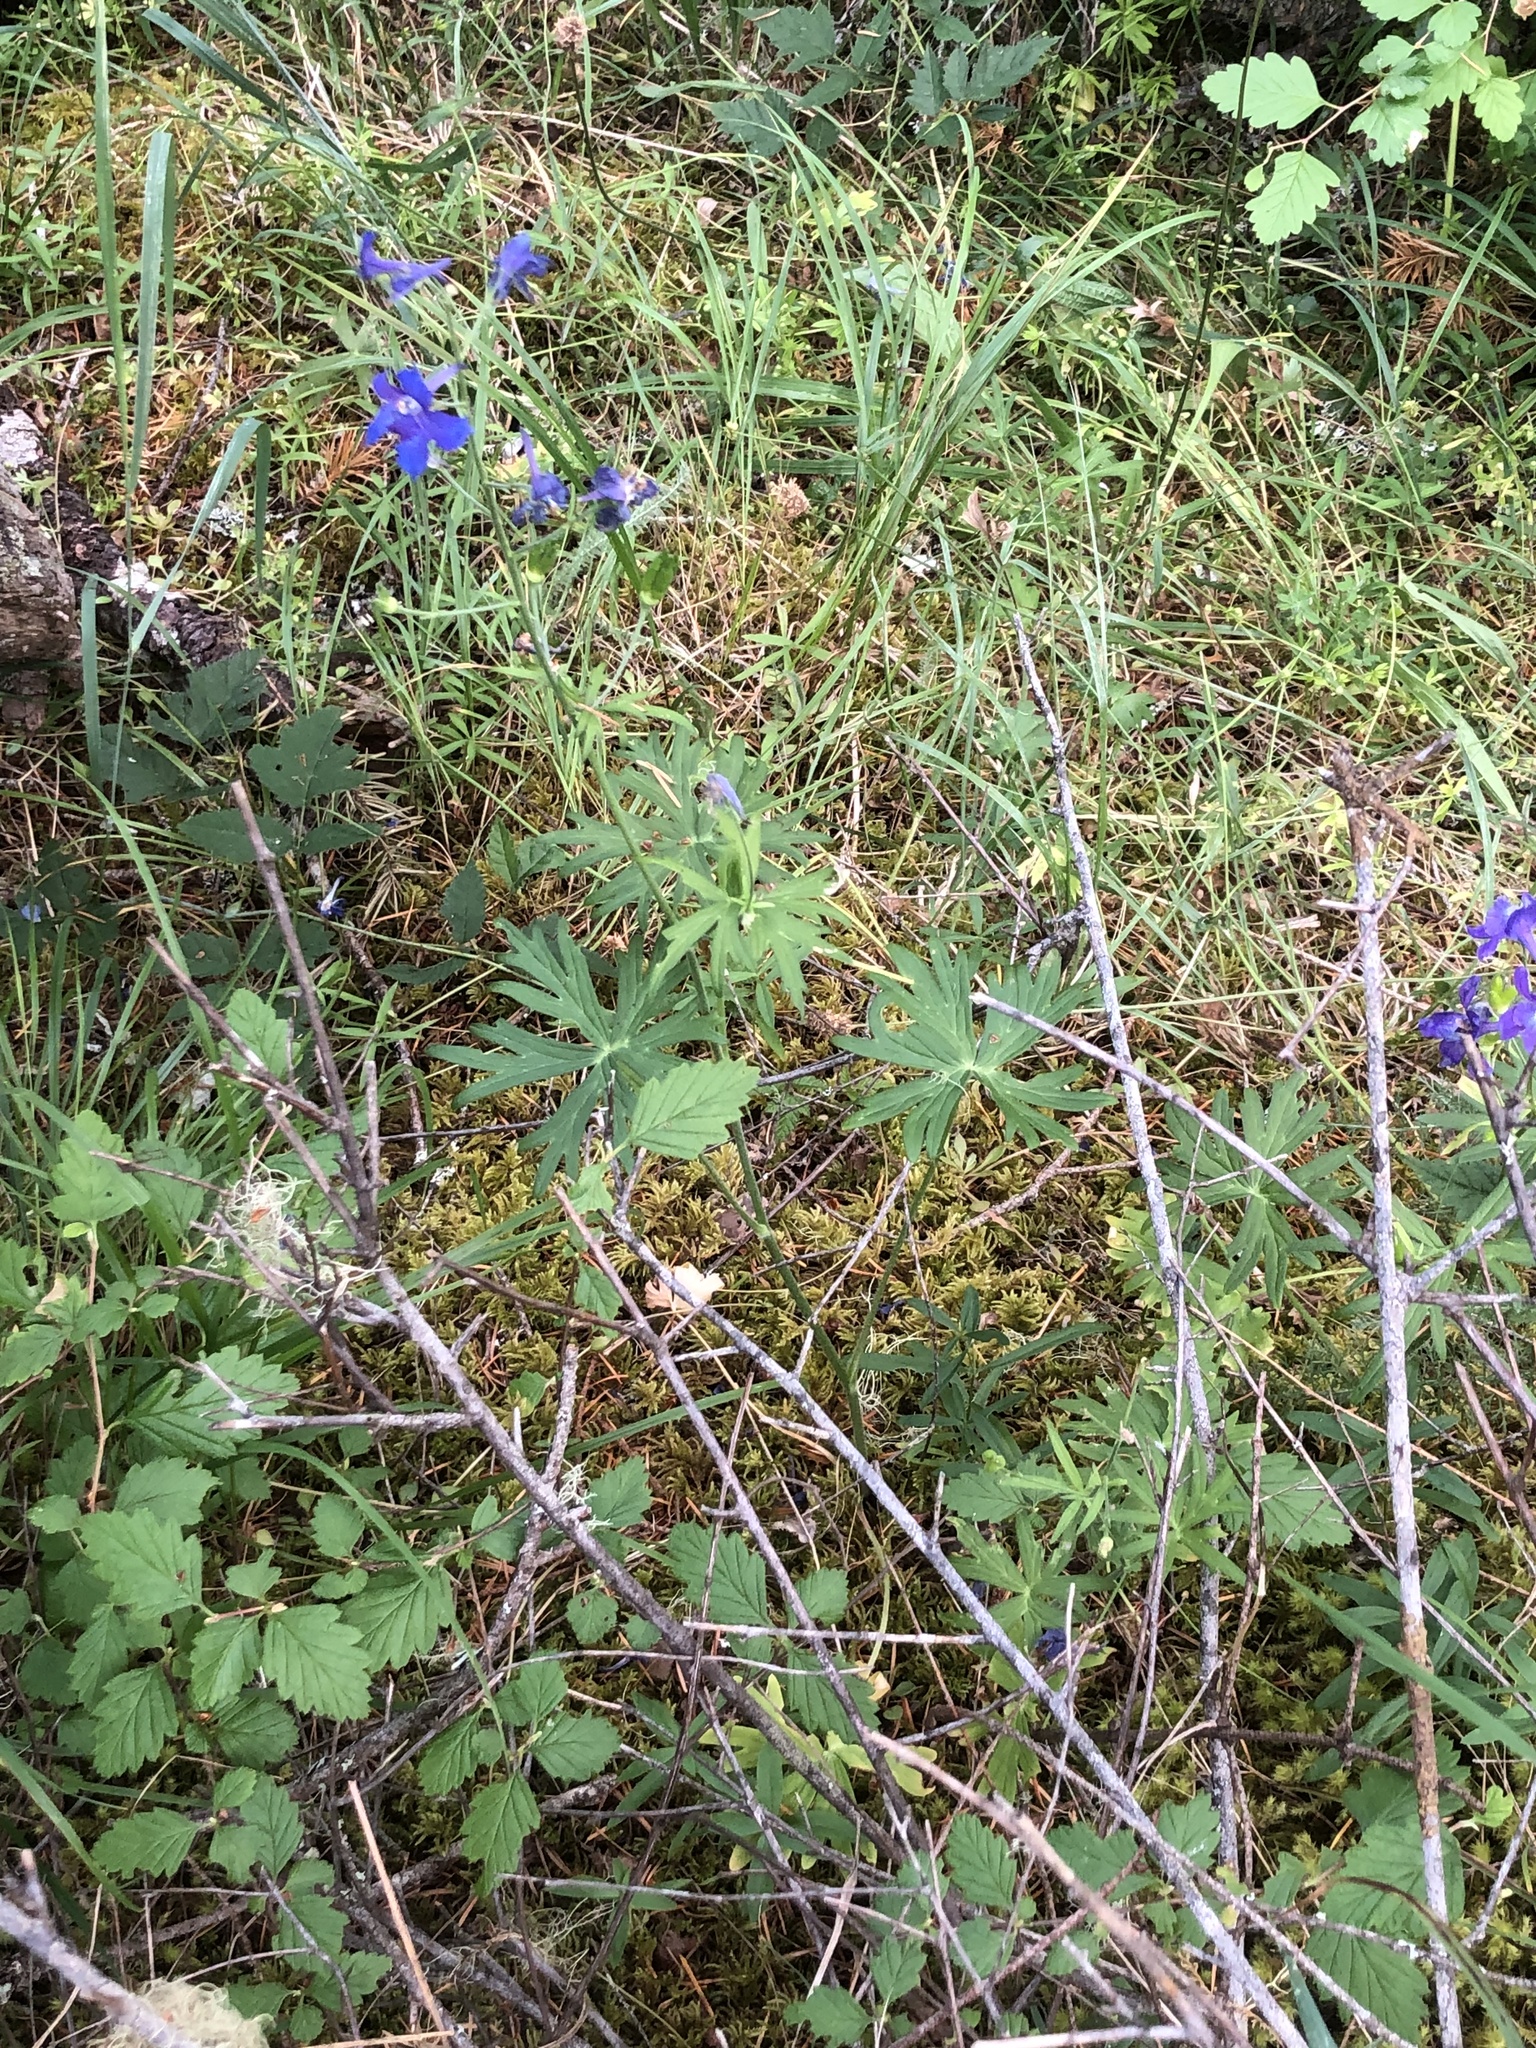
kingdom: Plantae
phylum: Tracheophyta
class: Magnoliopsida
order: Ranunculales
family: Ranunculaceae
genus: Delphinium
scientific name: Delphinium menziesii
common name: Menzies's larkspur
